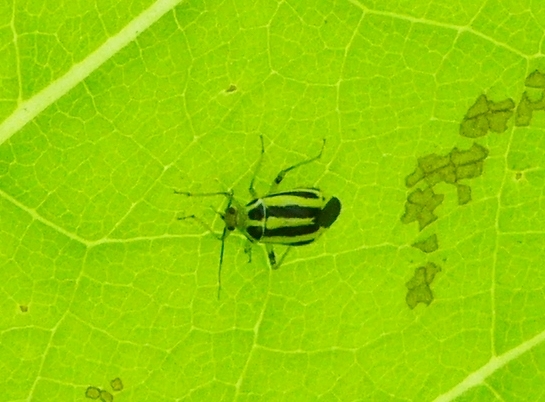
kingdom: Animalia
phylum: Arthropoda
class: Insecta
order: Hemiptera
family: Miridae
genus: Poecilocapsus
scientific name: Poecilocapsus lineatus
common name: Four-lined plant bug
